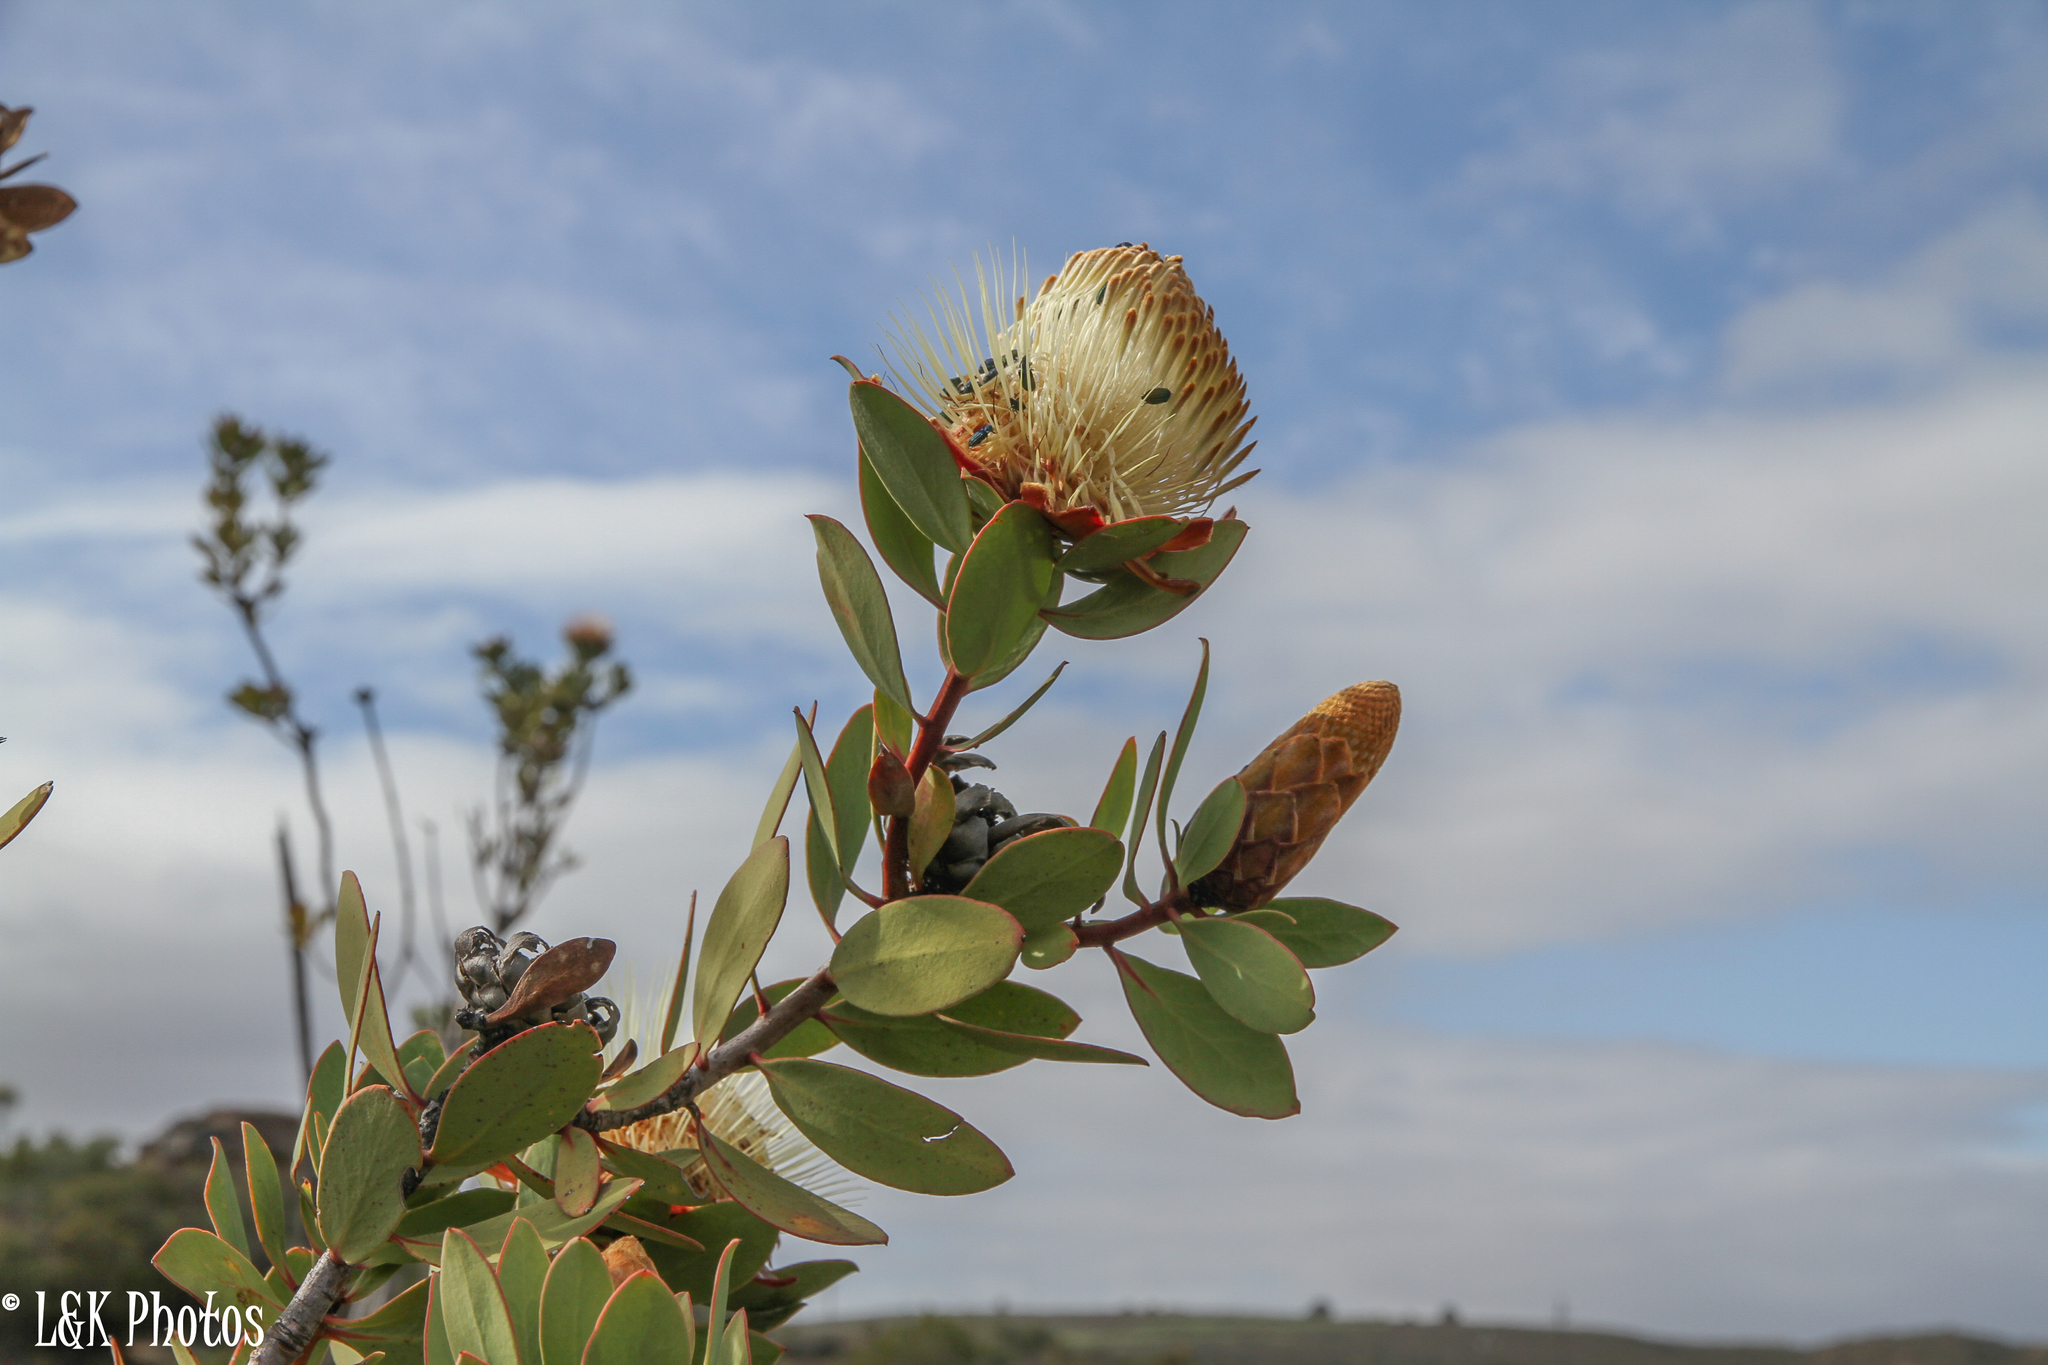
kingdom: Plantae
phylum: Tracheophyta
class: Magnoliopsida
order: Proteales
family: Proteaceae
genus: Protea
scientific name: Protea glabra
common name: Chestnut sugarbush
